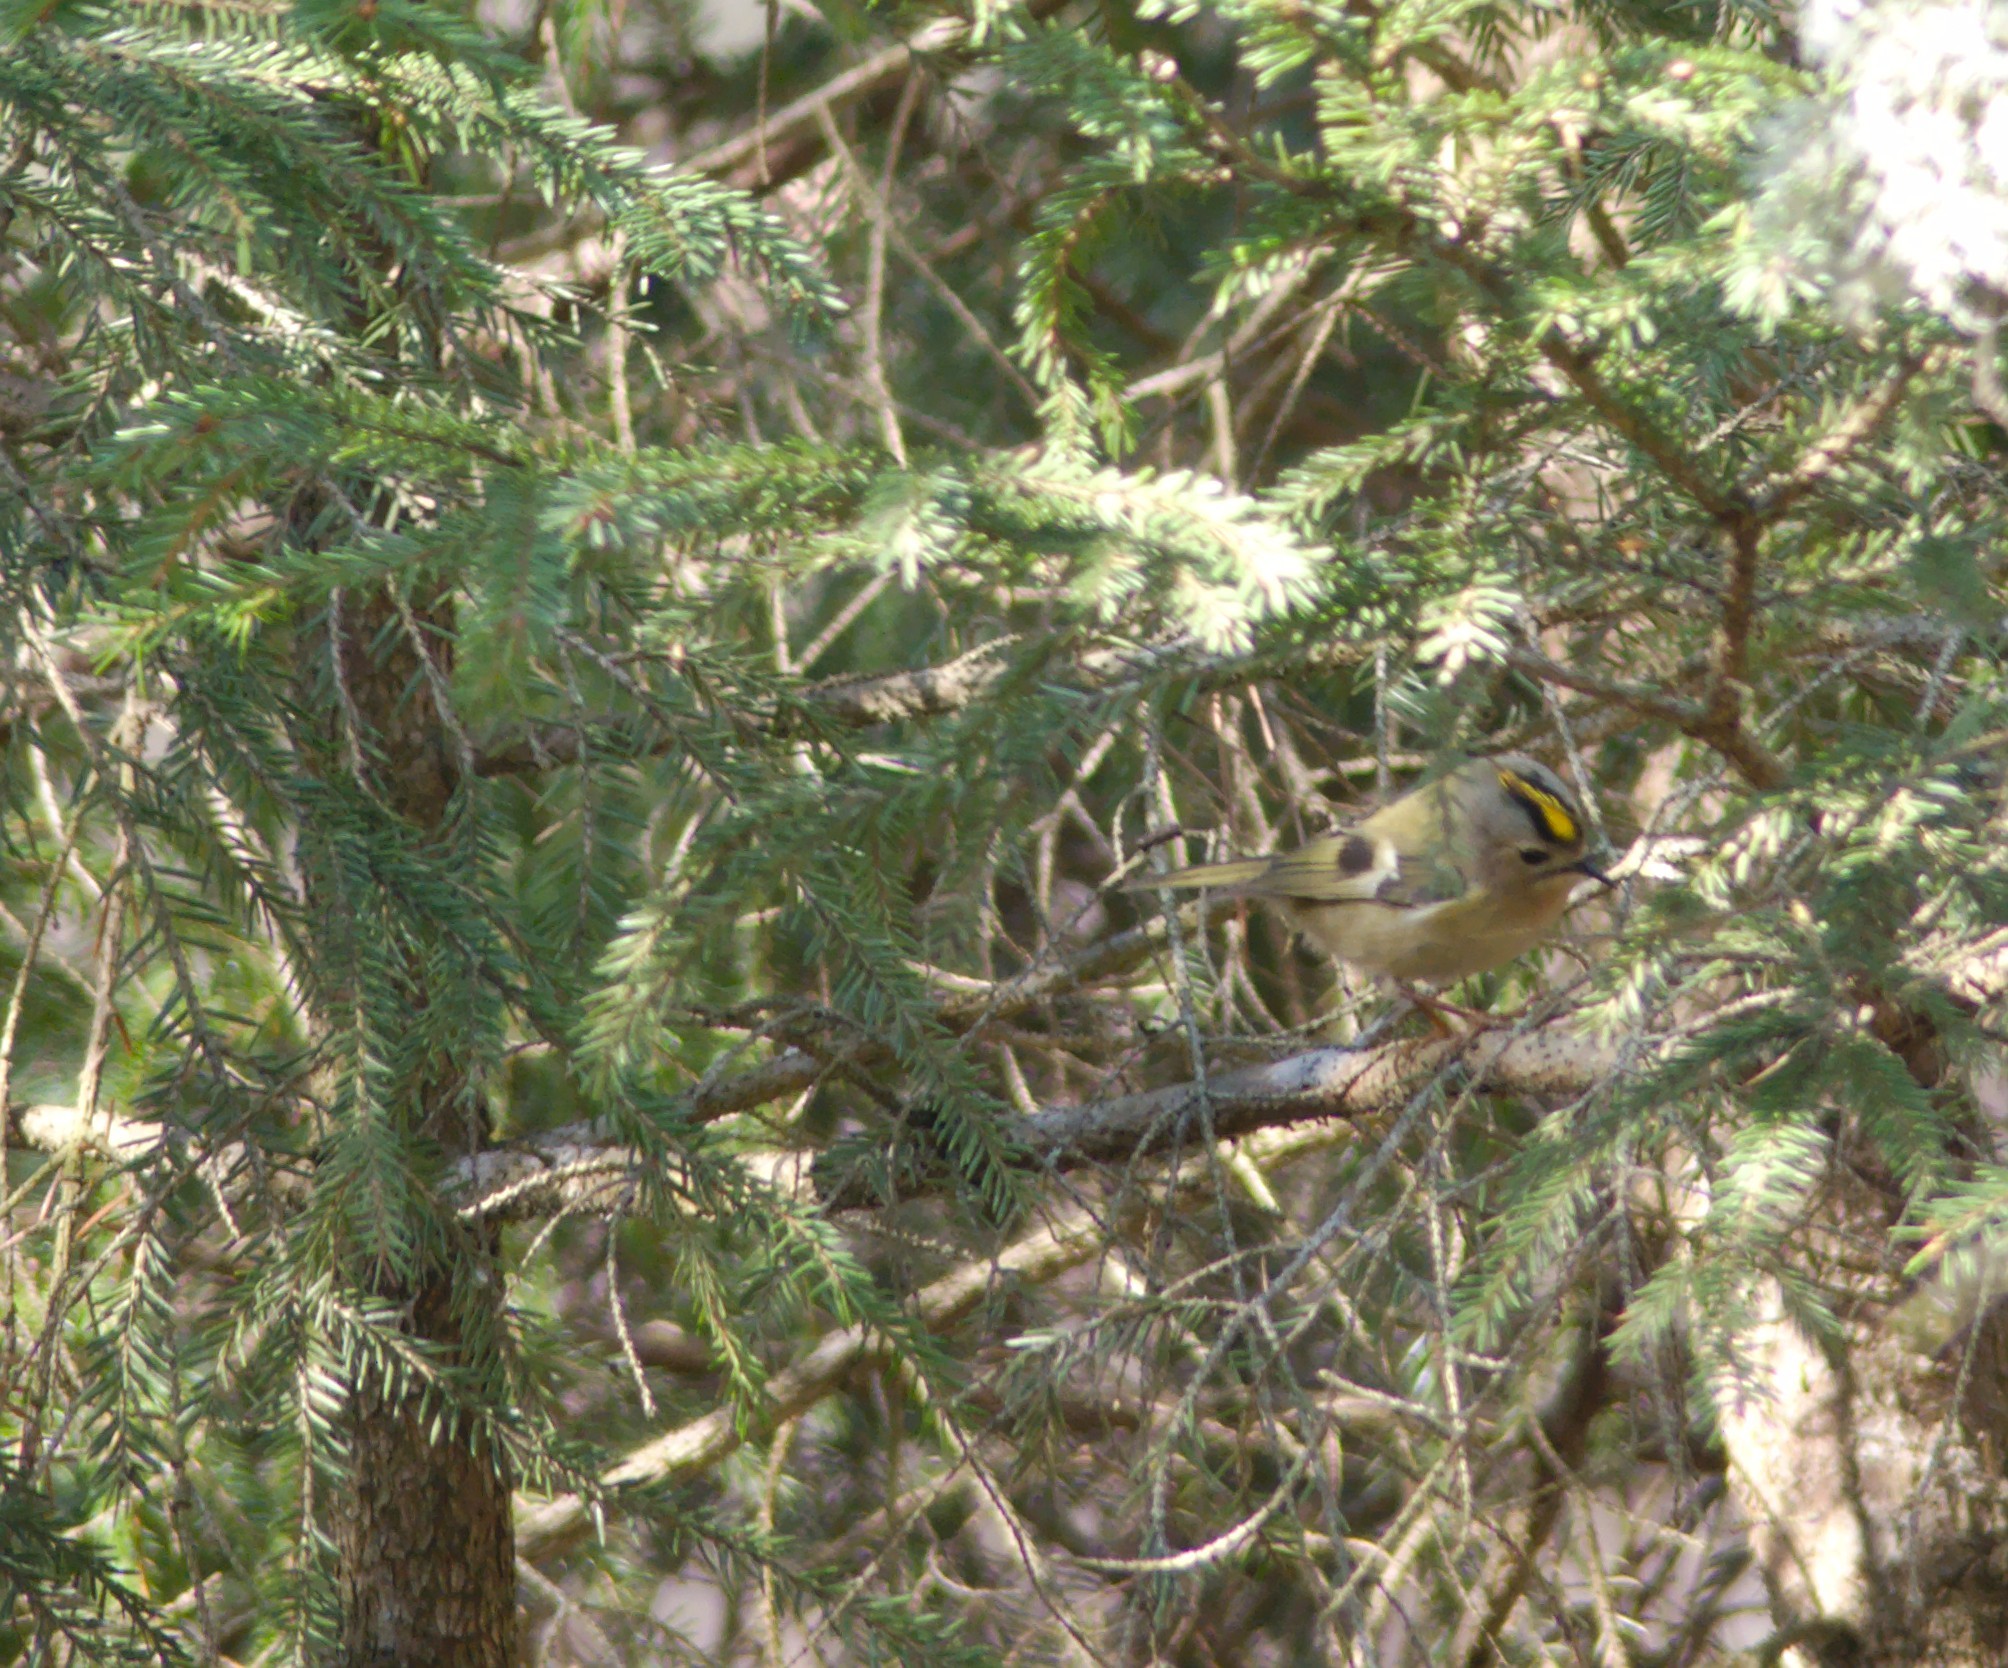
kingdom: Animalia
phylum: Chordata
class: Aves
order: Passeriformes
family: Regulidae
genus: Regulus
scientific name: Regulus regulus
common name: Goldcrest
